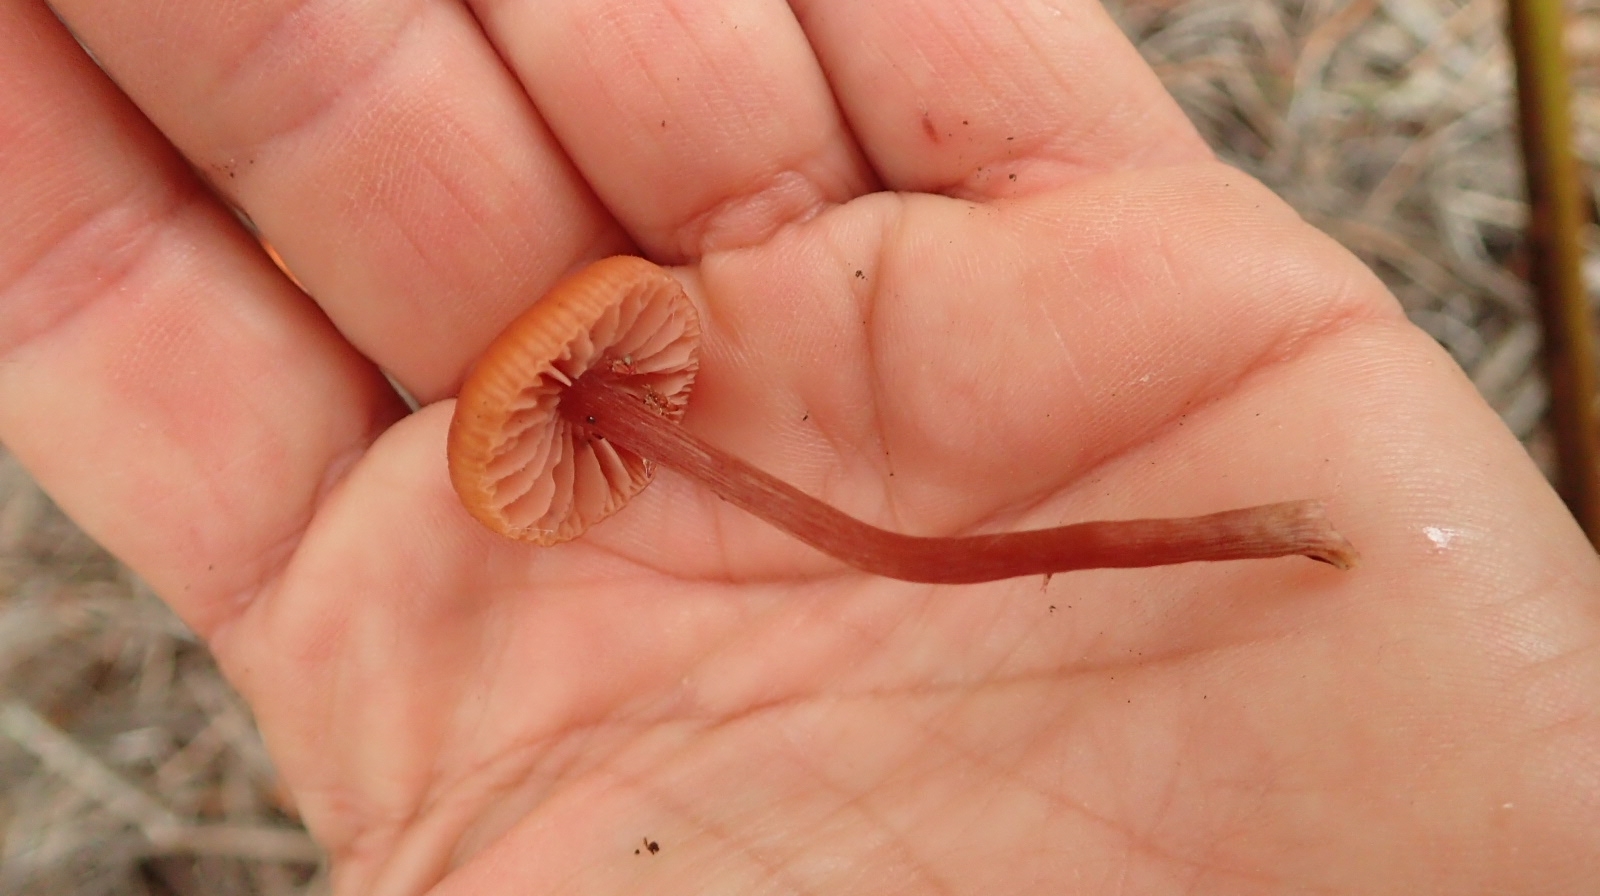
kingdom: Fungi
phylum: Basidiomycota
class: Agaricomycetes
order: Agaricales
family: Hydnangiaceae
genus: Laccaria
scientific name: Laccaria laccata
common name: Deceiver
